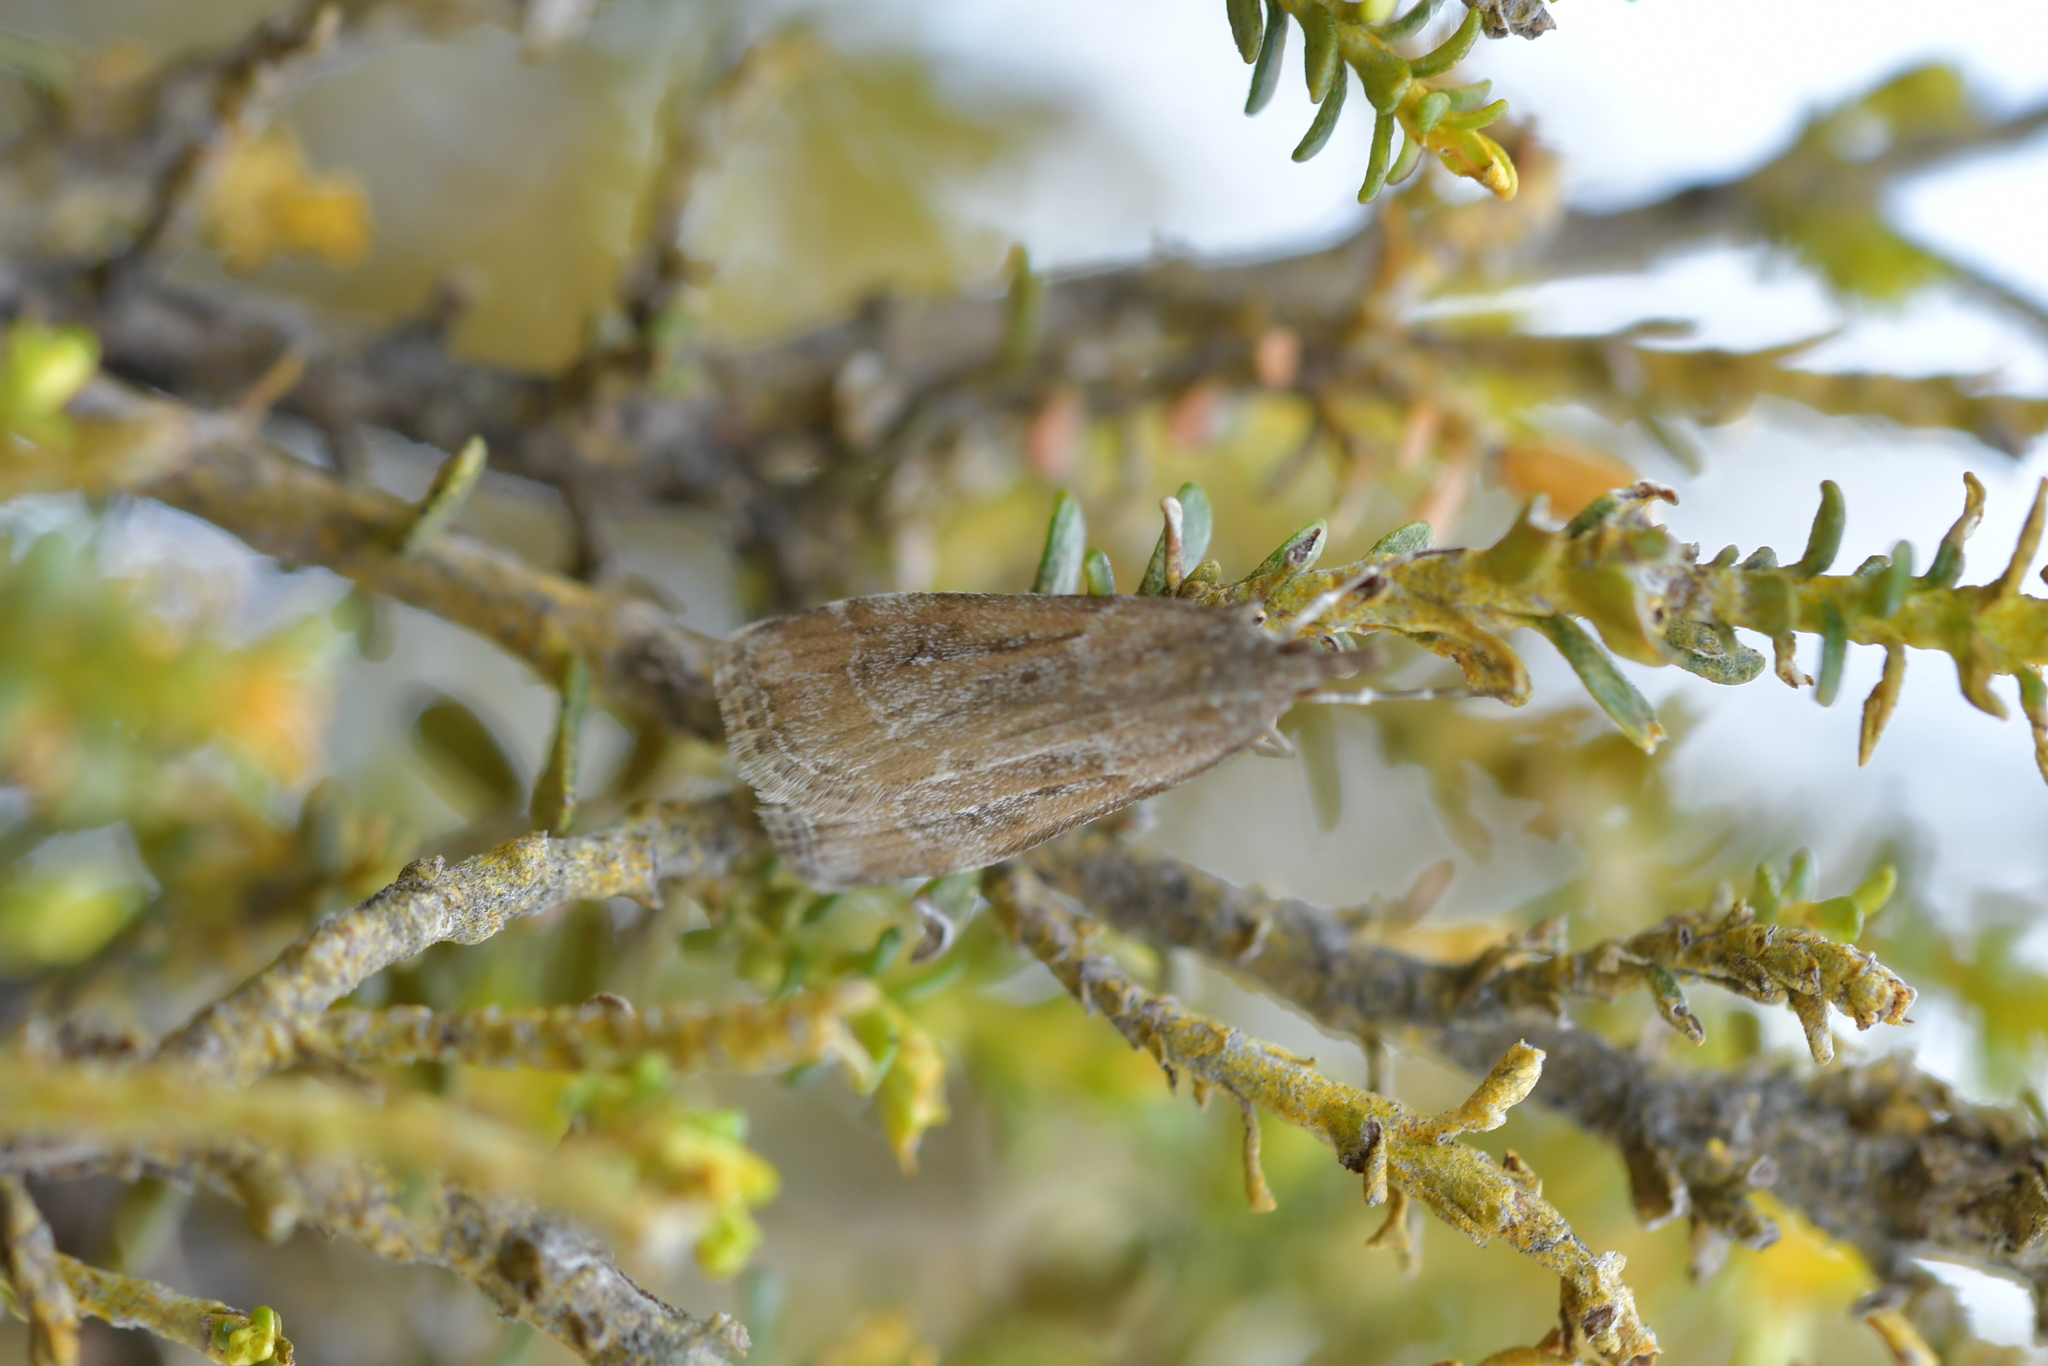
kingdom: Animalia
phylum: Arthropoda
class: Insecta
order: Lepidoptera
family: Crambidae
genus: Eudonia
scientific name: Eudonia chalara
